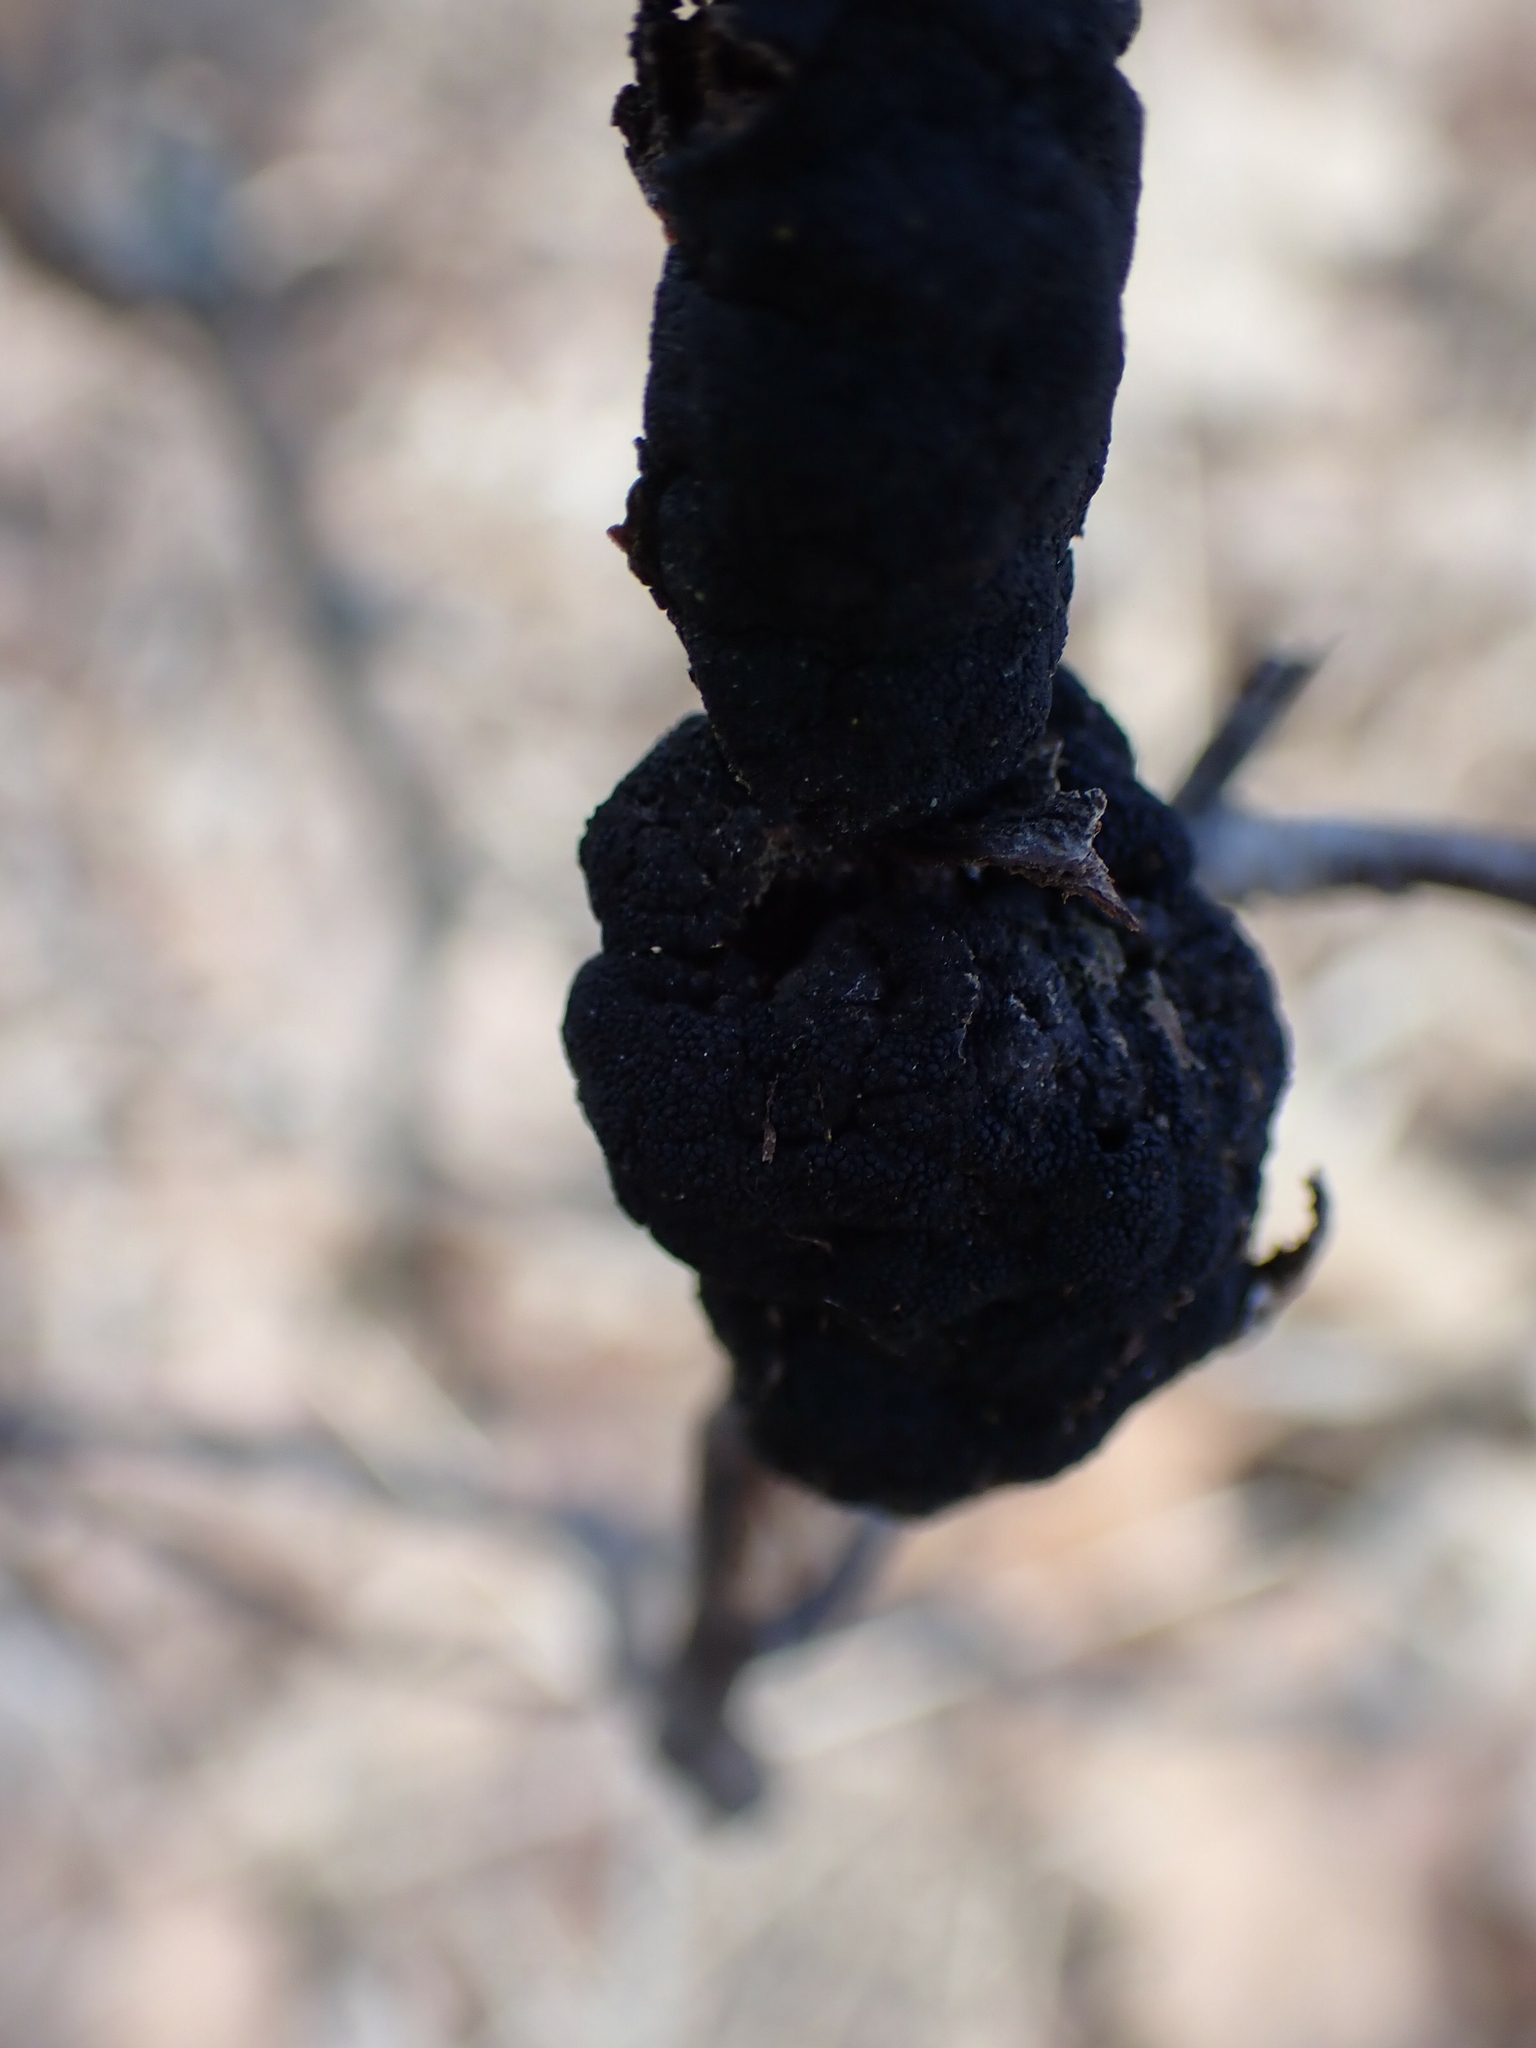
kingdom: Fungi
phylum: Ascomycota
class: Dothideomycetes
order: Venturiales
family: Venturiaceae
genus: Apiosporina
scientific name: Apiosporina morbosa
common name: Black knot
